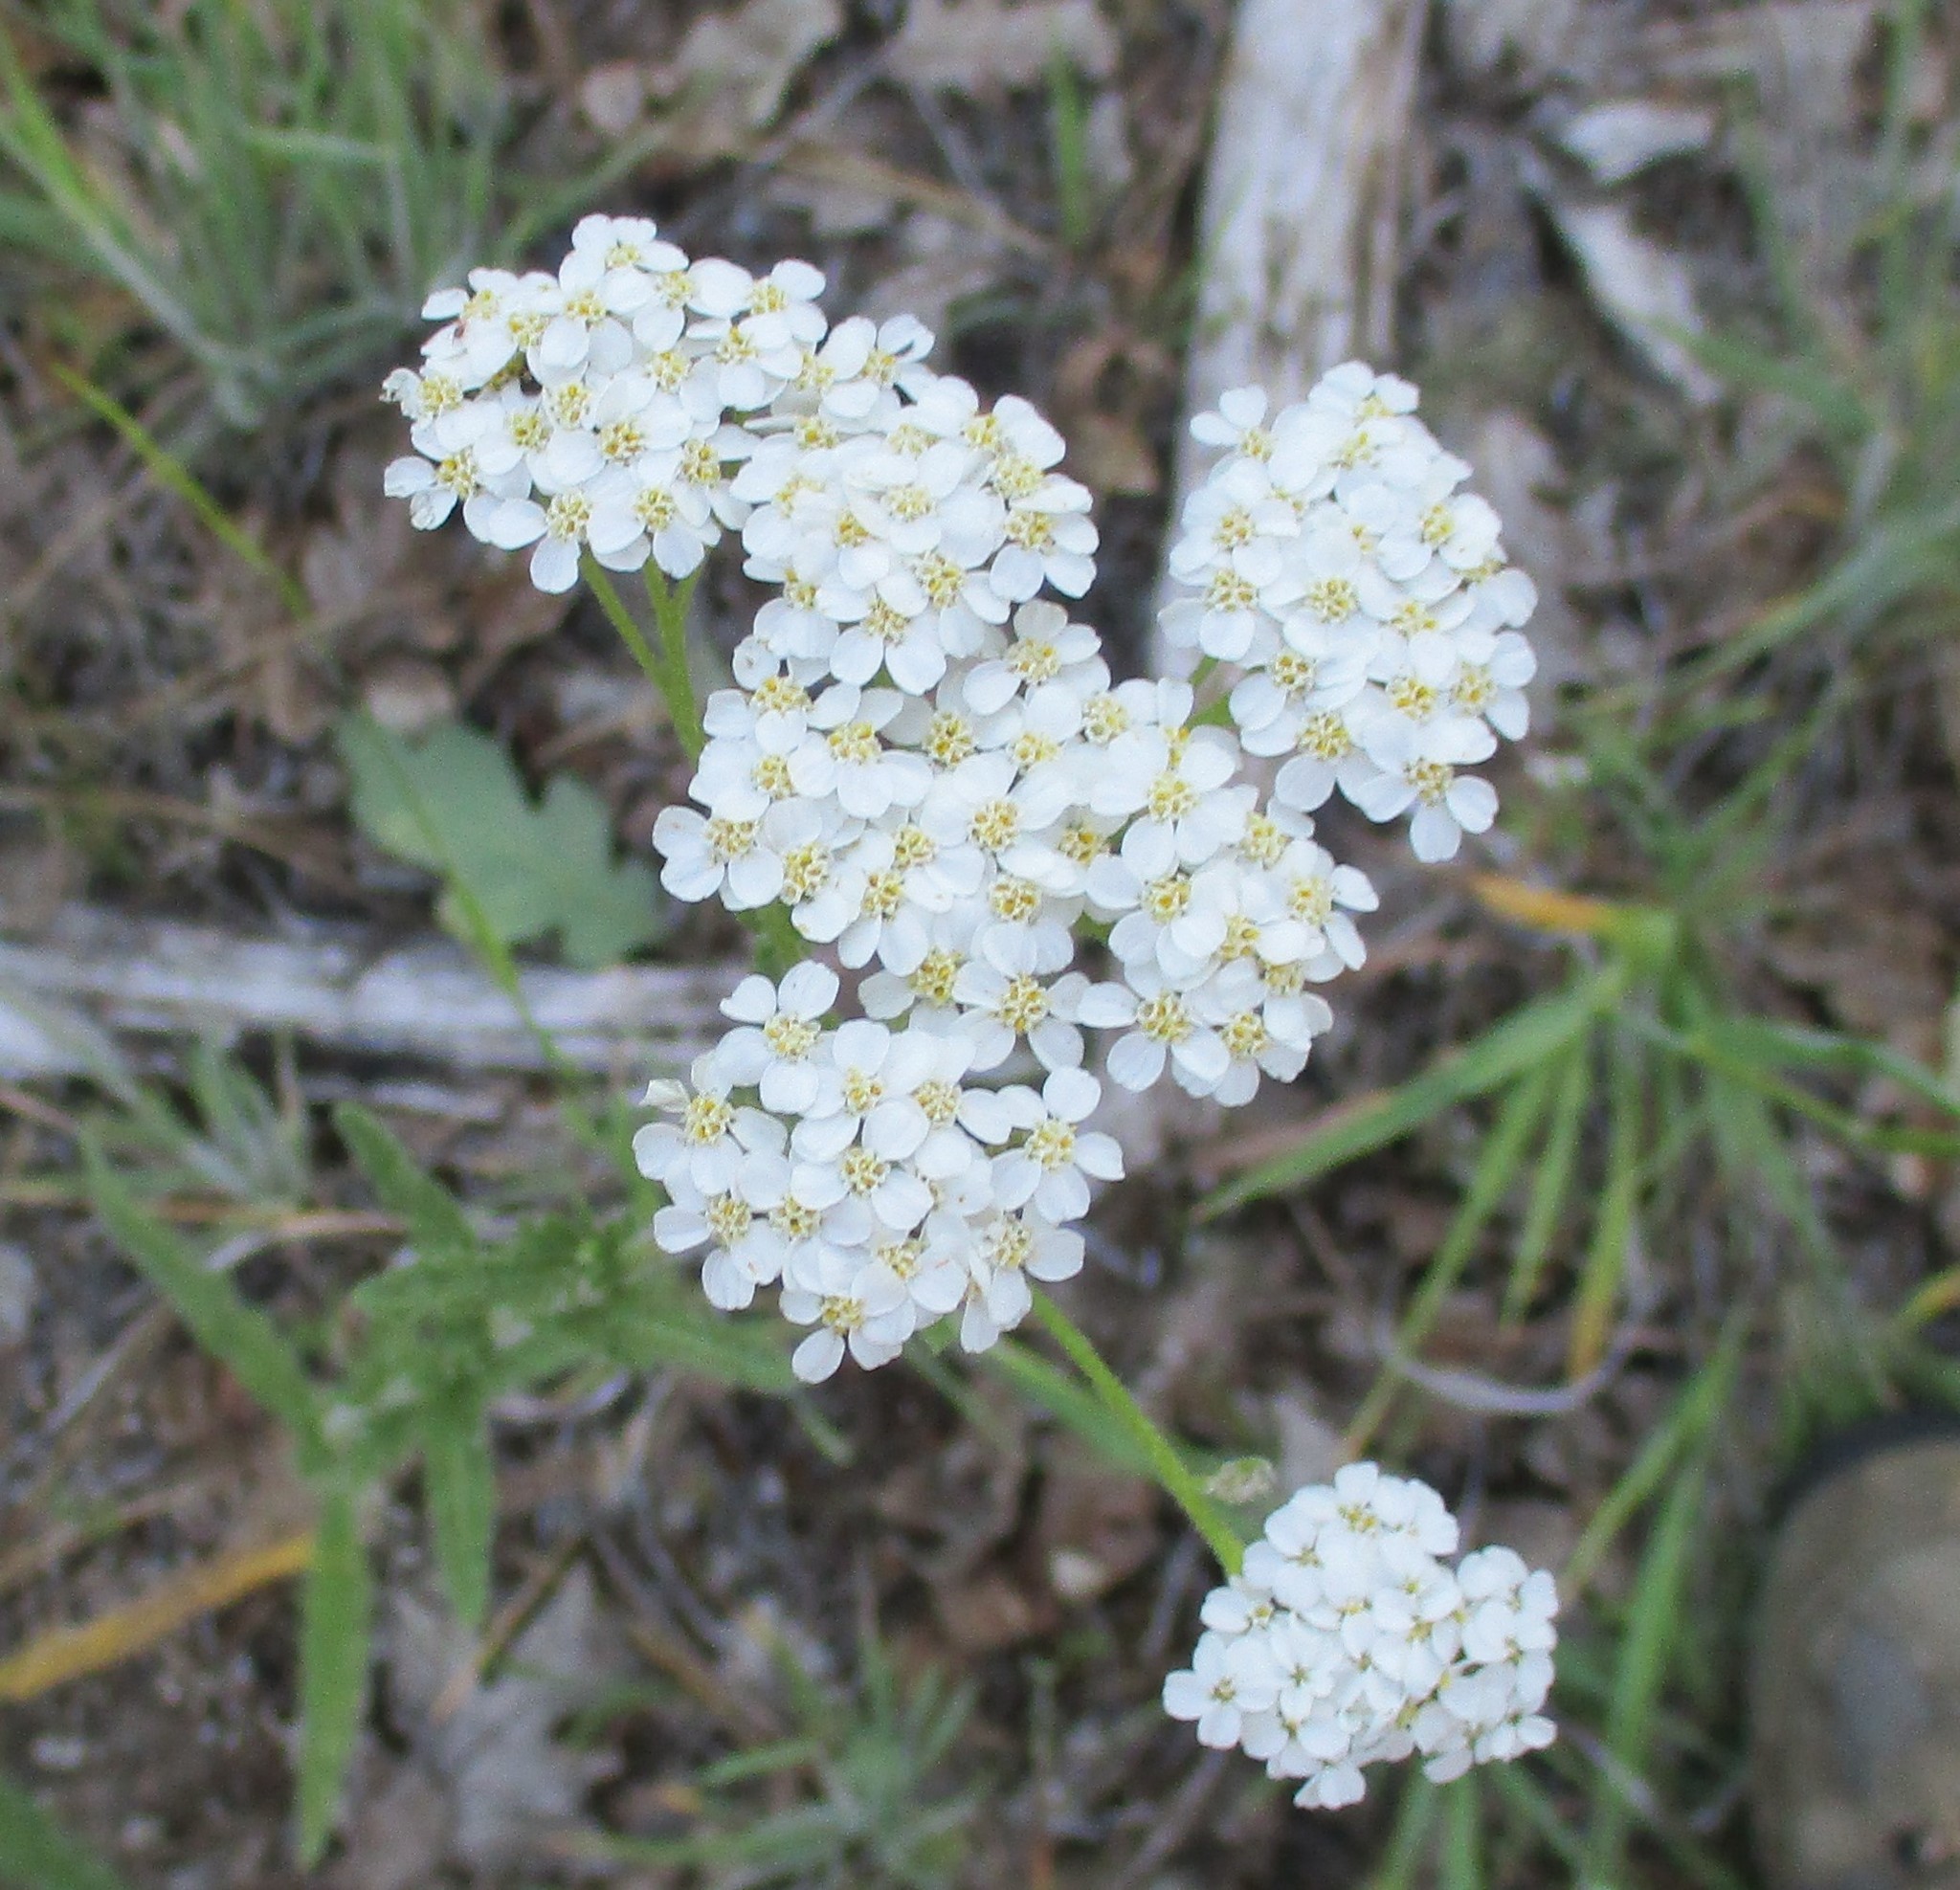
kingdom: Plantae
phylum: Tracheophyta
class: Magnoliopsida
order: Asterales
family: Asteraceae
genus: Achillea
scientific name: Achillea millefolium
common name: Yarrow
